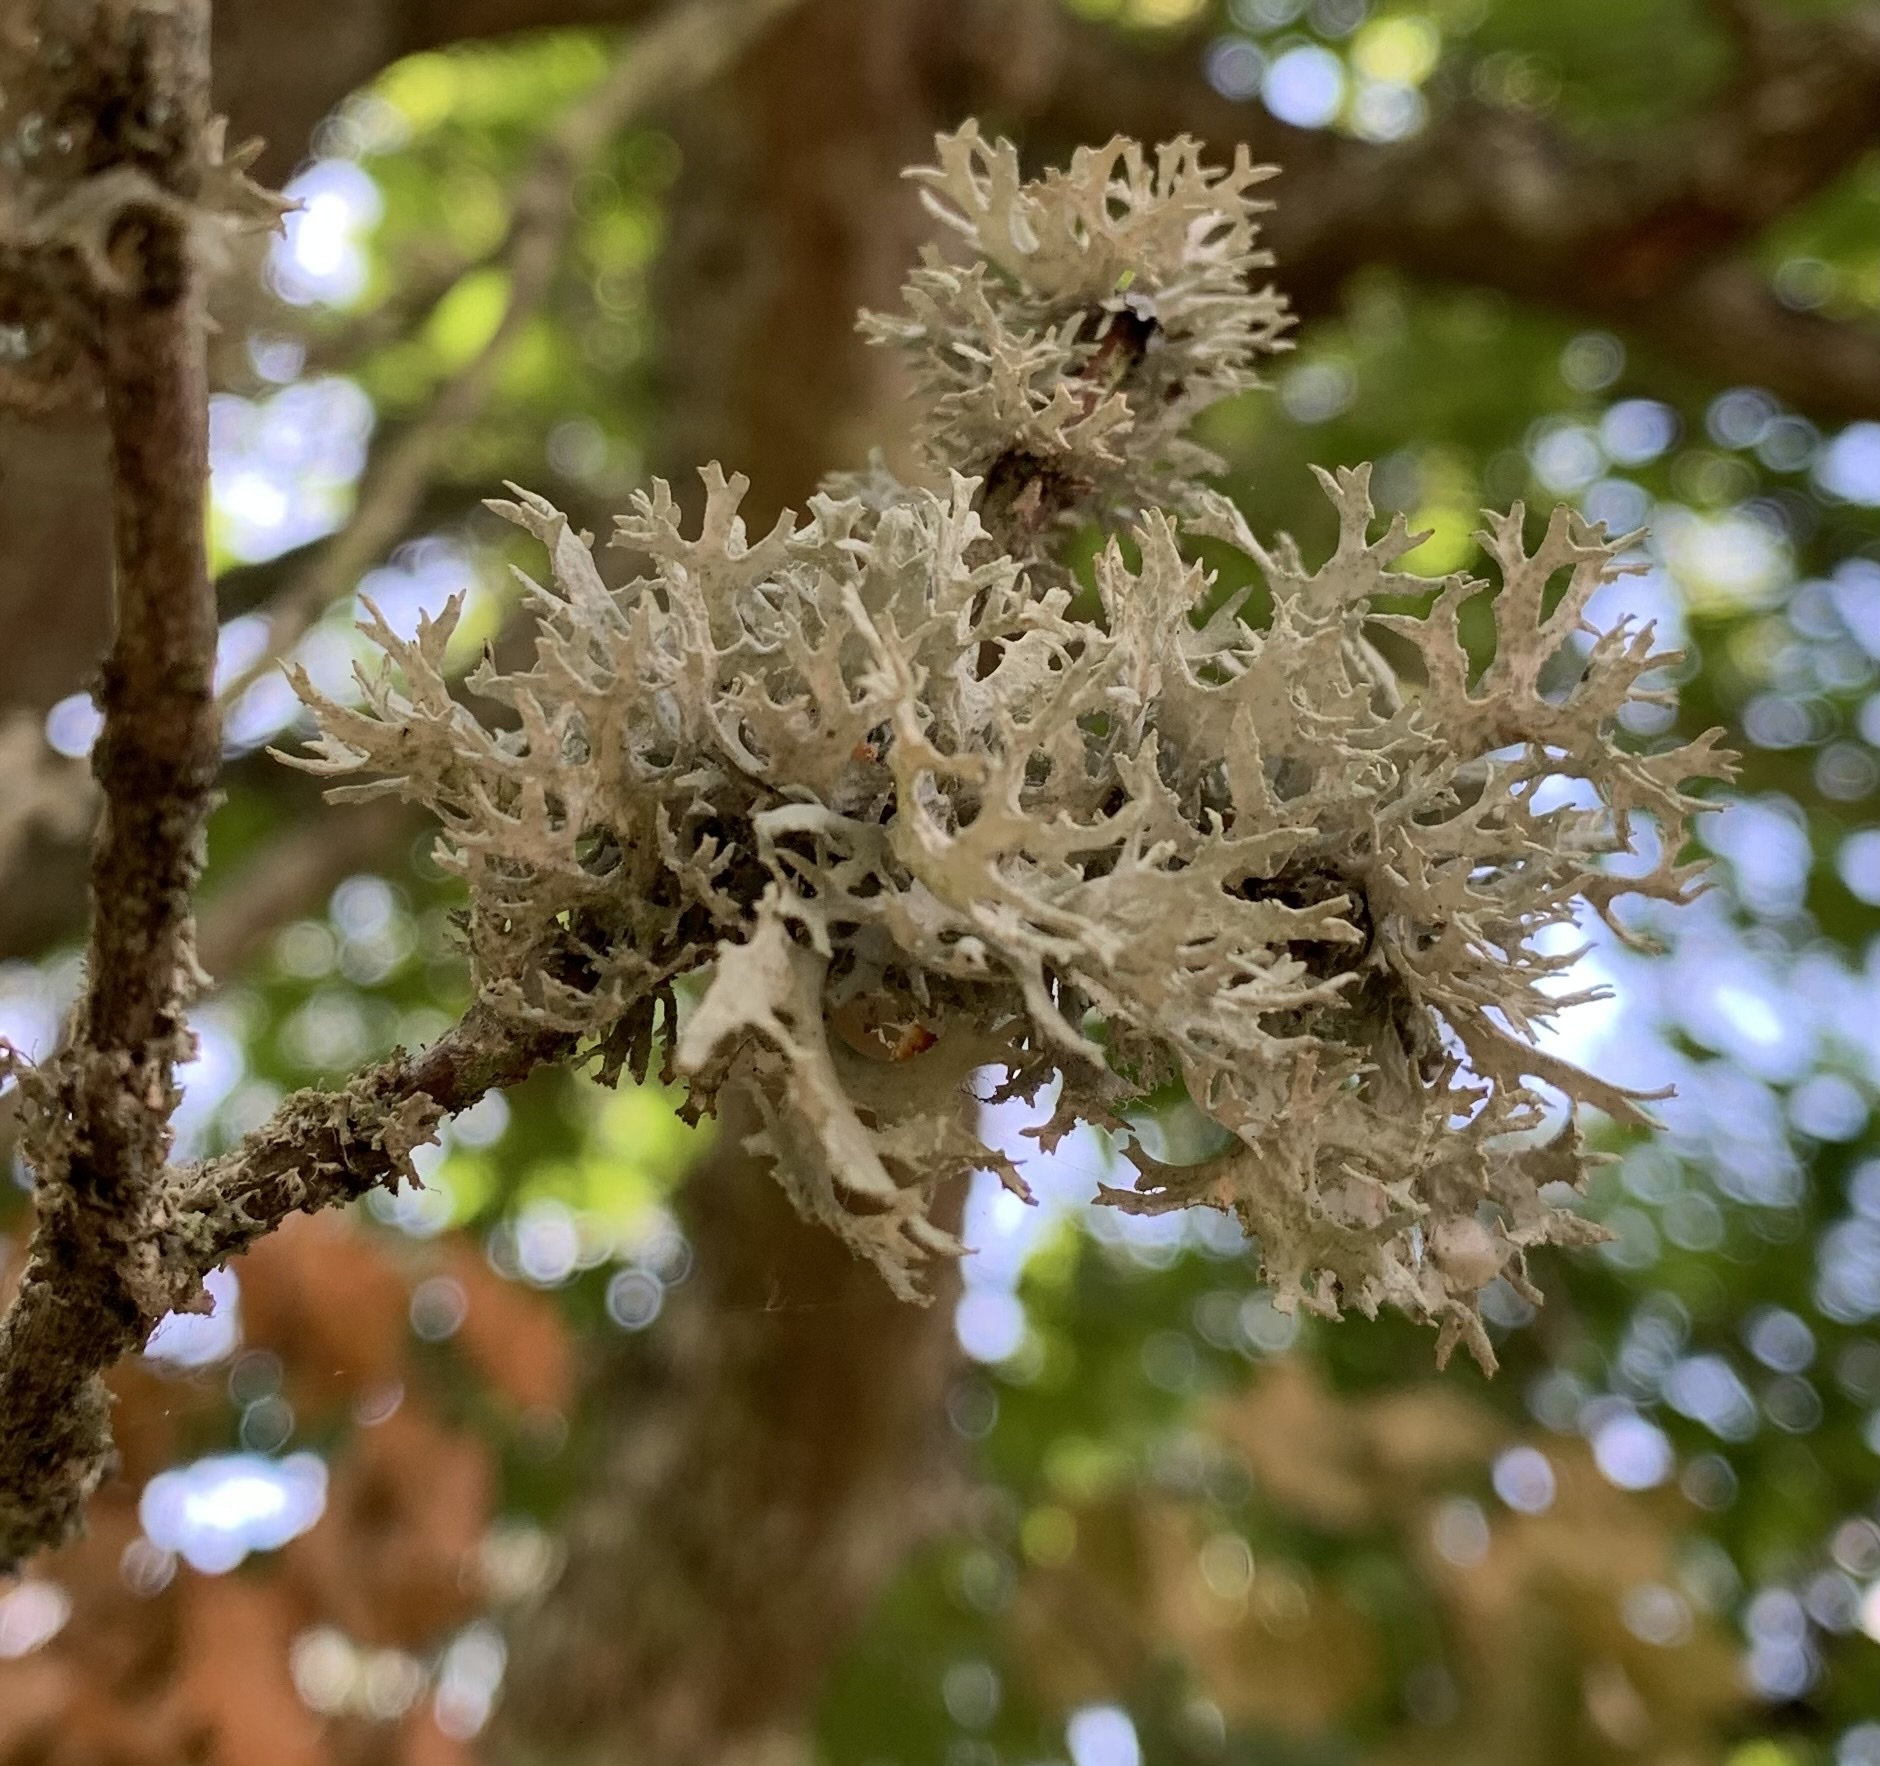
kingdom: Fungi
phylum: Ascomycota
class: Lecanoromycetes
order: Lecanorales
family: Parmeliaceae
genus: Evernia
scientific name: Evernia prunastri
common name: Oak moss
